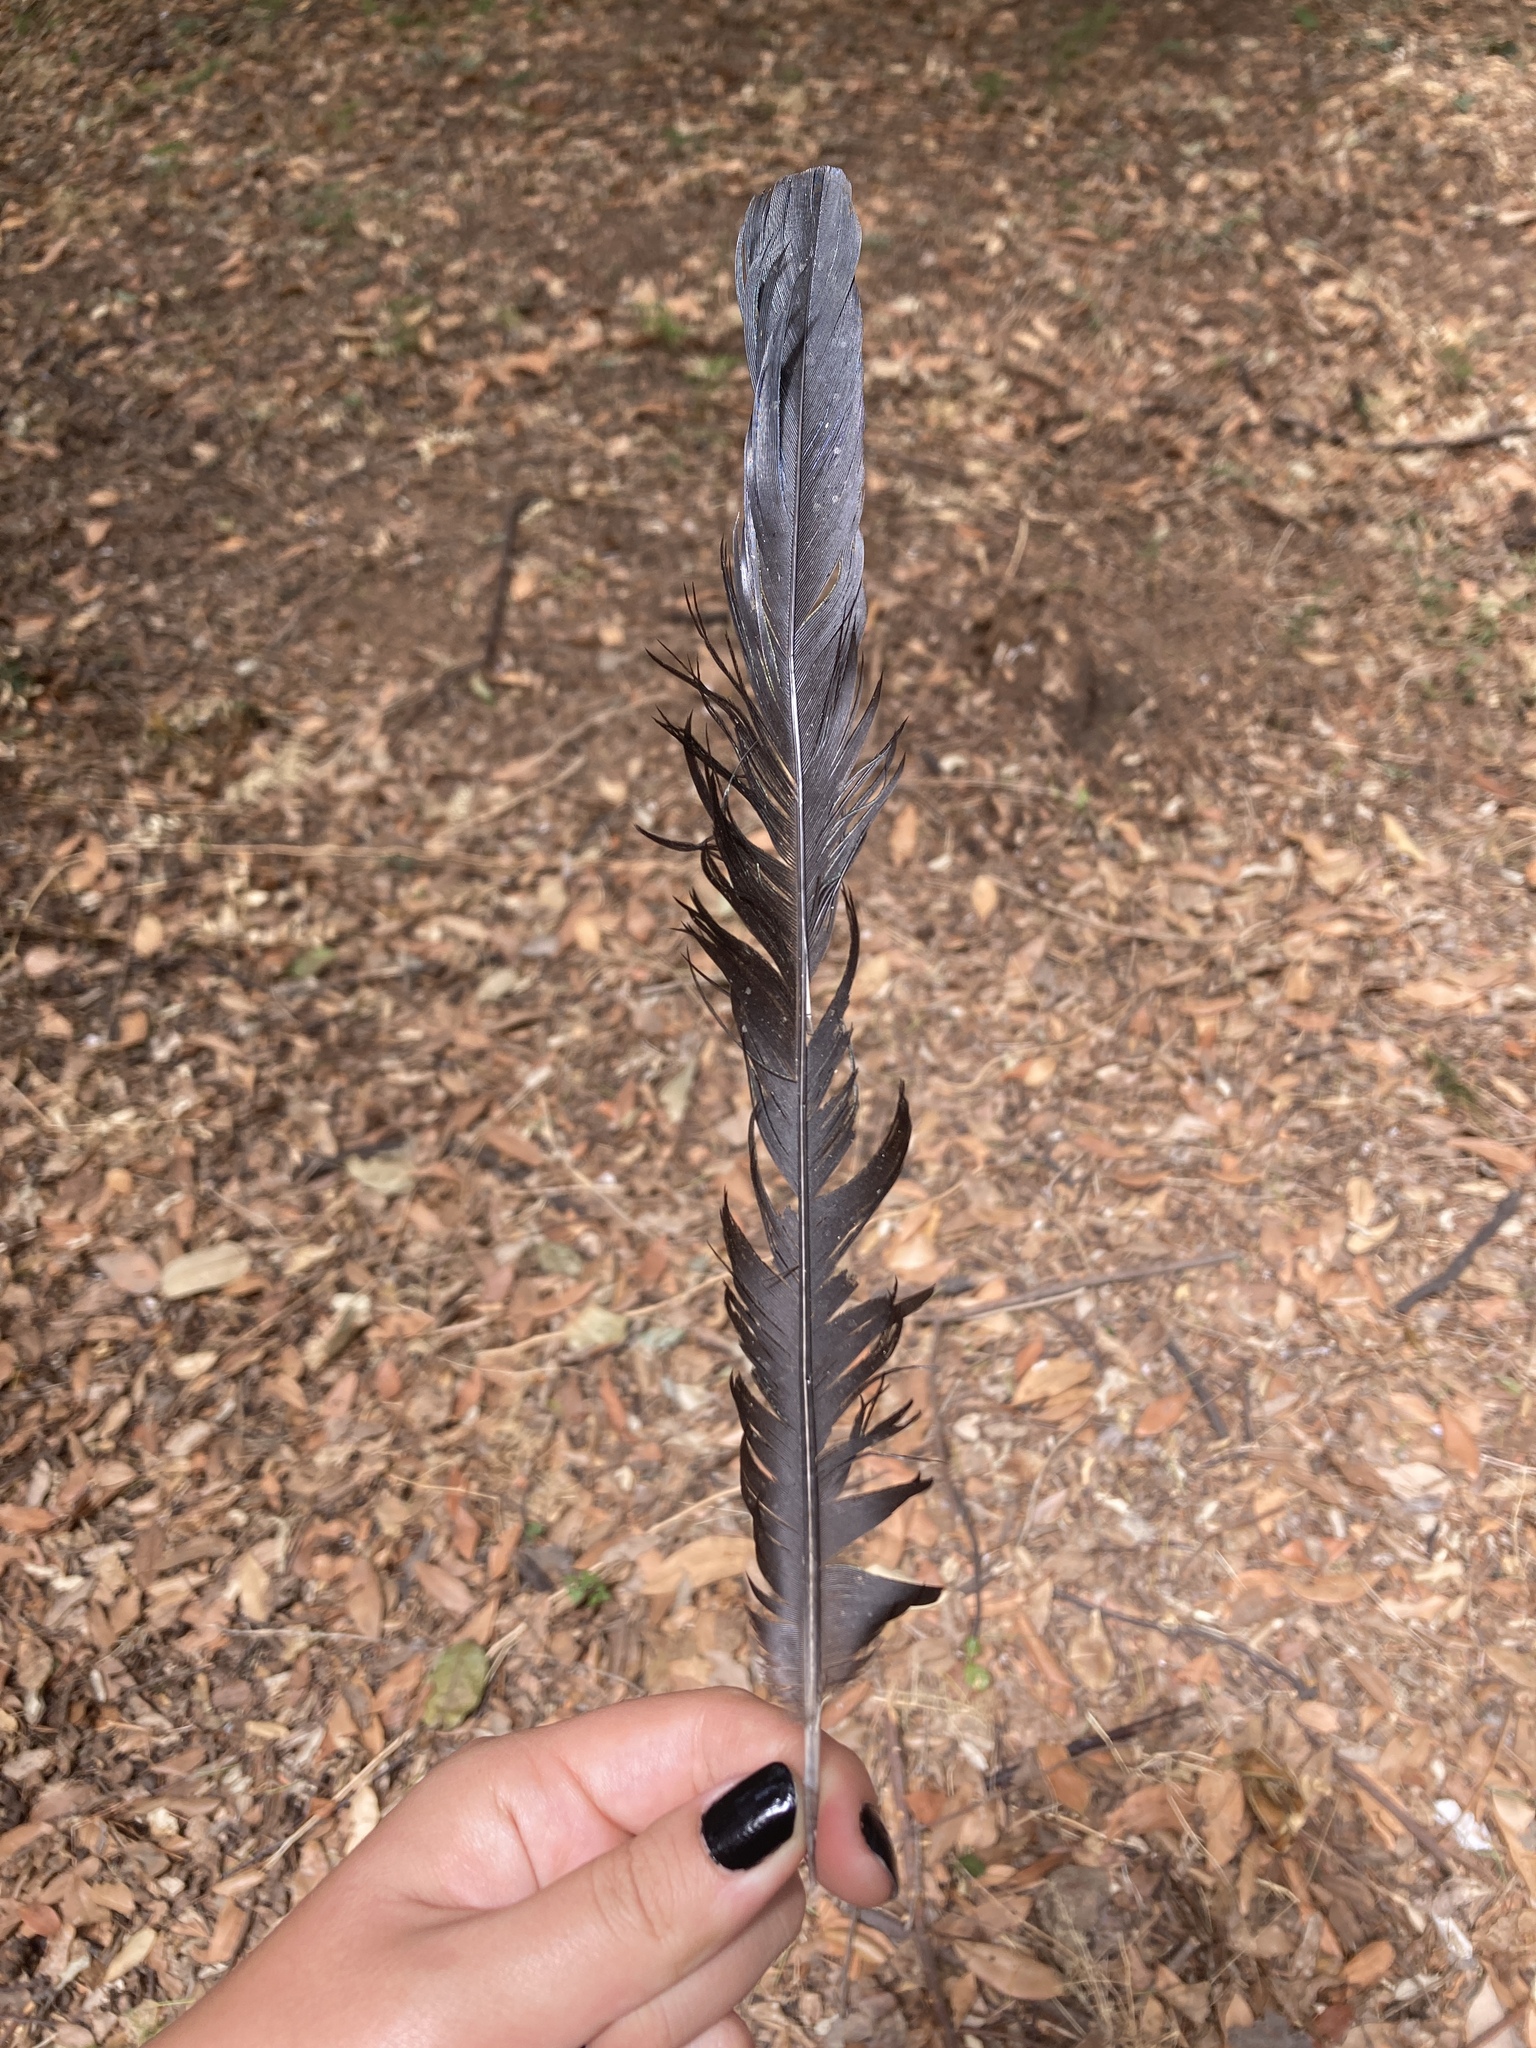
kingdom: Animalia
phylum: Chordata
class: Aves
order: Passeriformes
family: Corvidae
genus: Pica
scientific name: Pica pica
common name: Eurasian magpie
